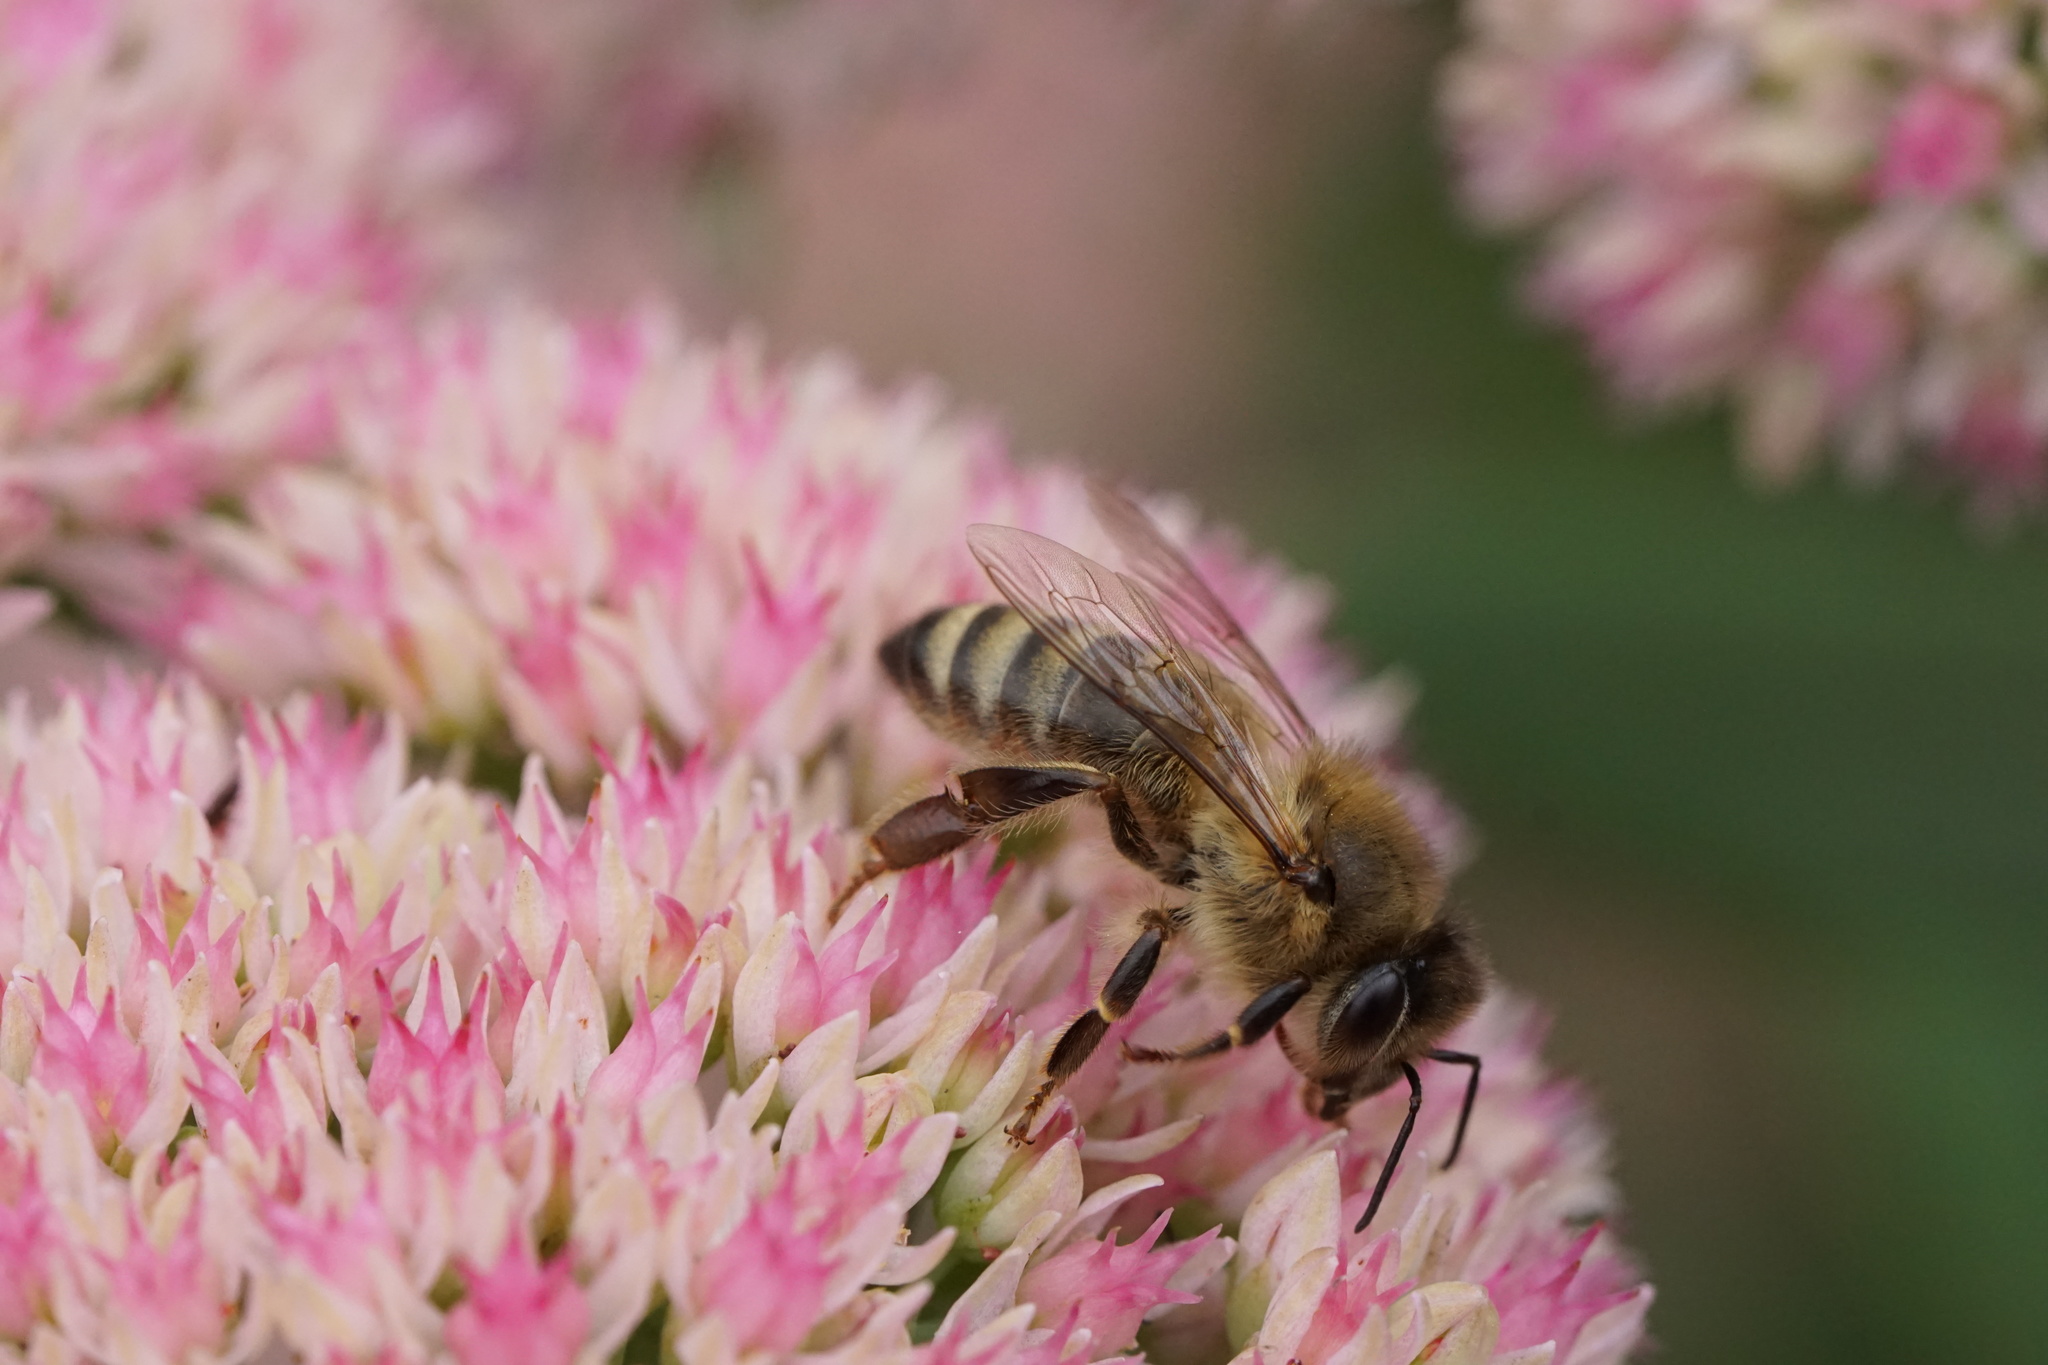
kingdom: Animalia
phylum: Arthropoda
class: Insecta
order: Hymenoptera
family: Apidae
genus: Apis
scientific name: Apis mellifera
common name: Honey bee
